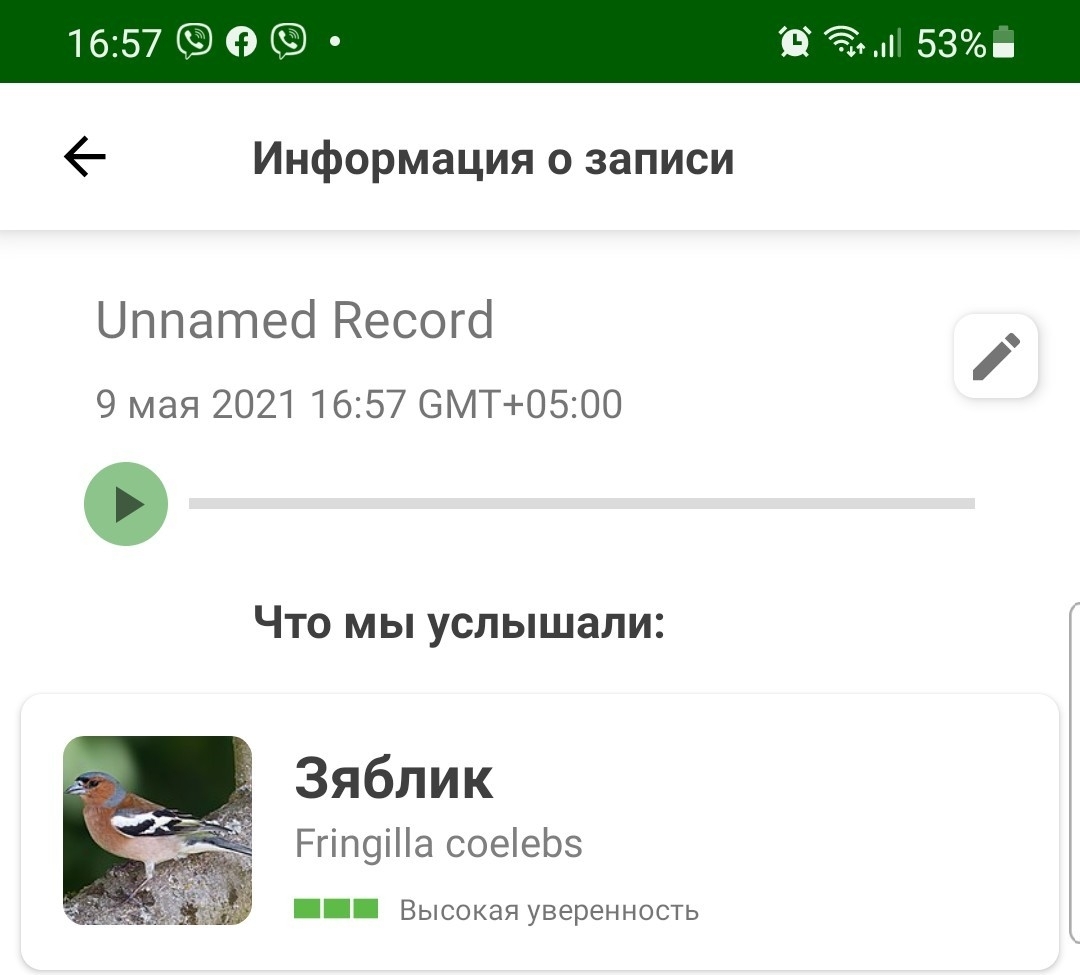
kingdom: Animalia
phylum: Chordata
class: Aves
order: Passeriformes
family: Fringillidae
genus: Fringilla
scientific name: Fringilla coelebs
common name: Common chaffinch
